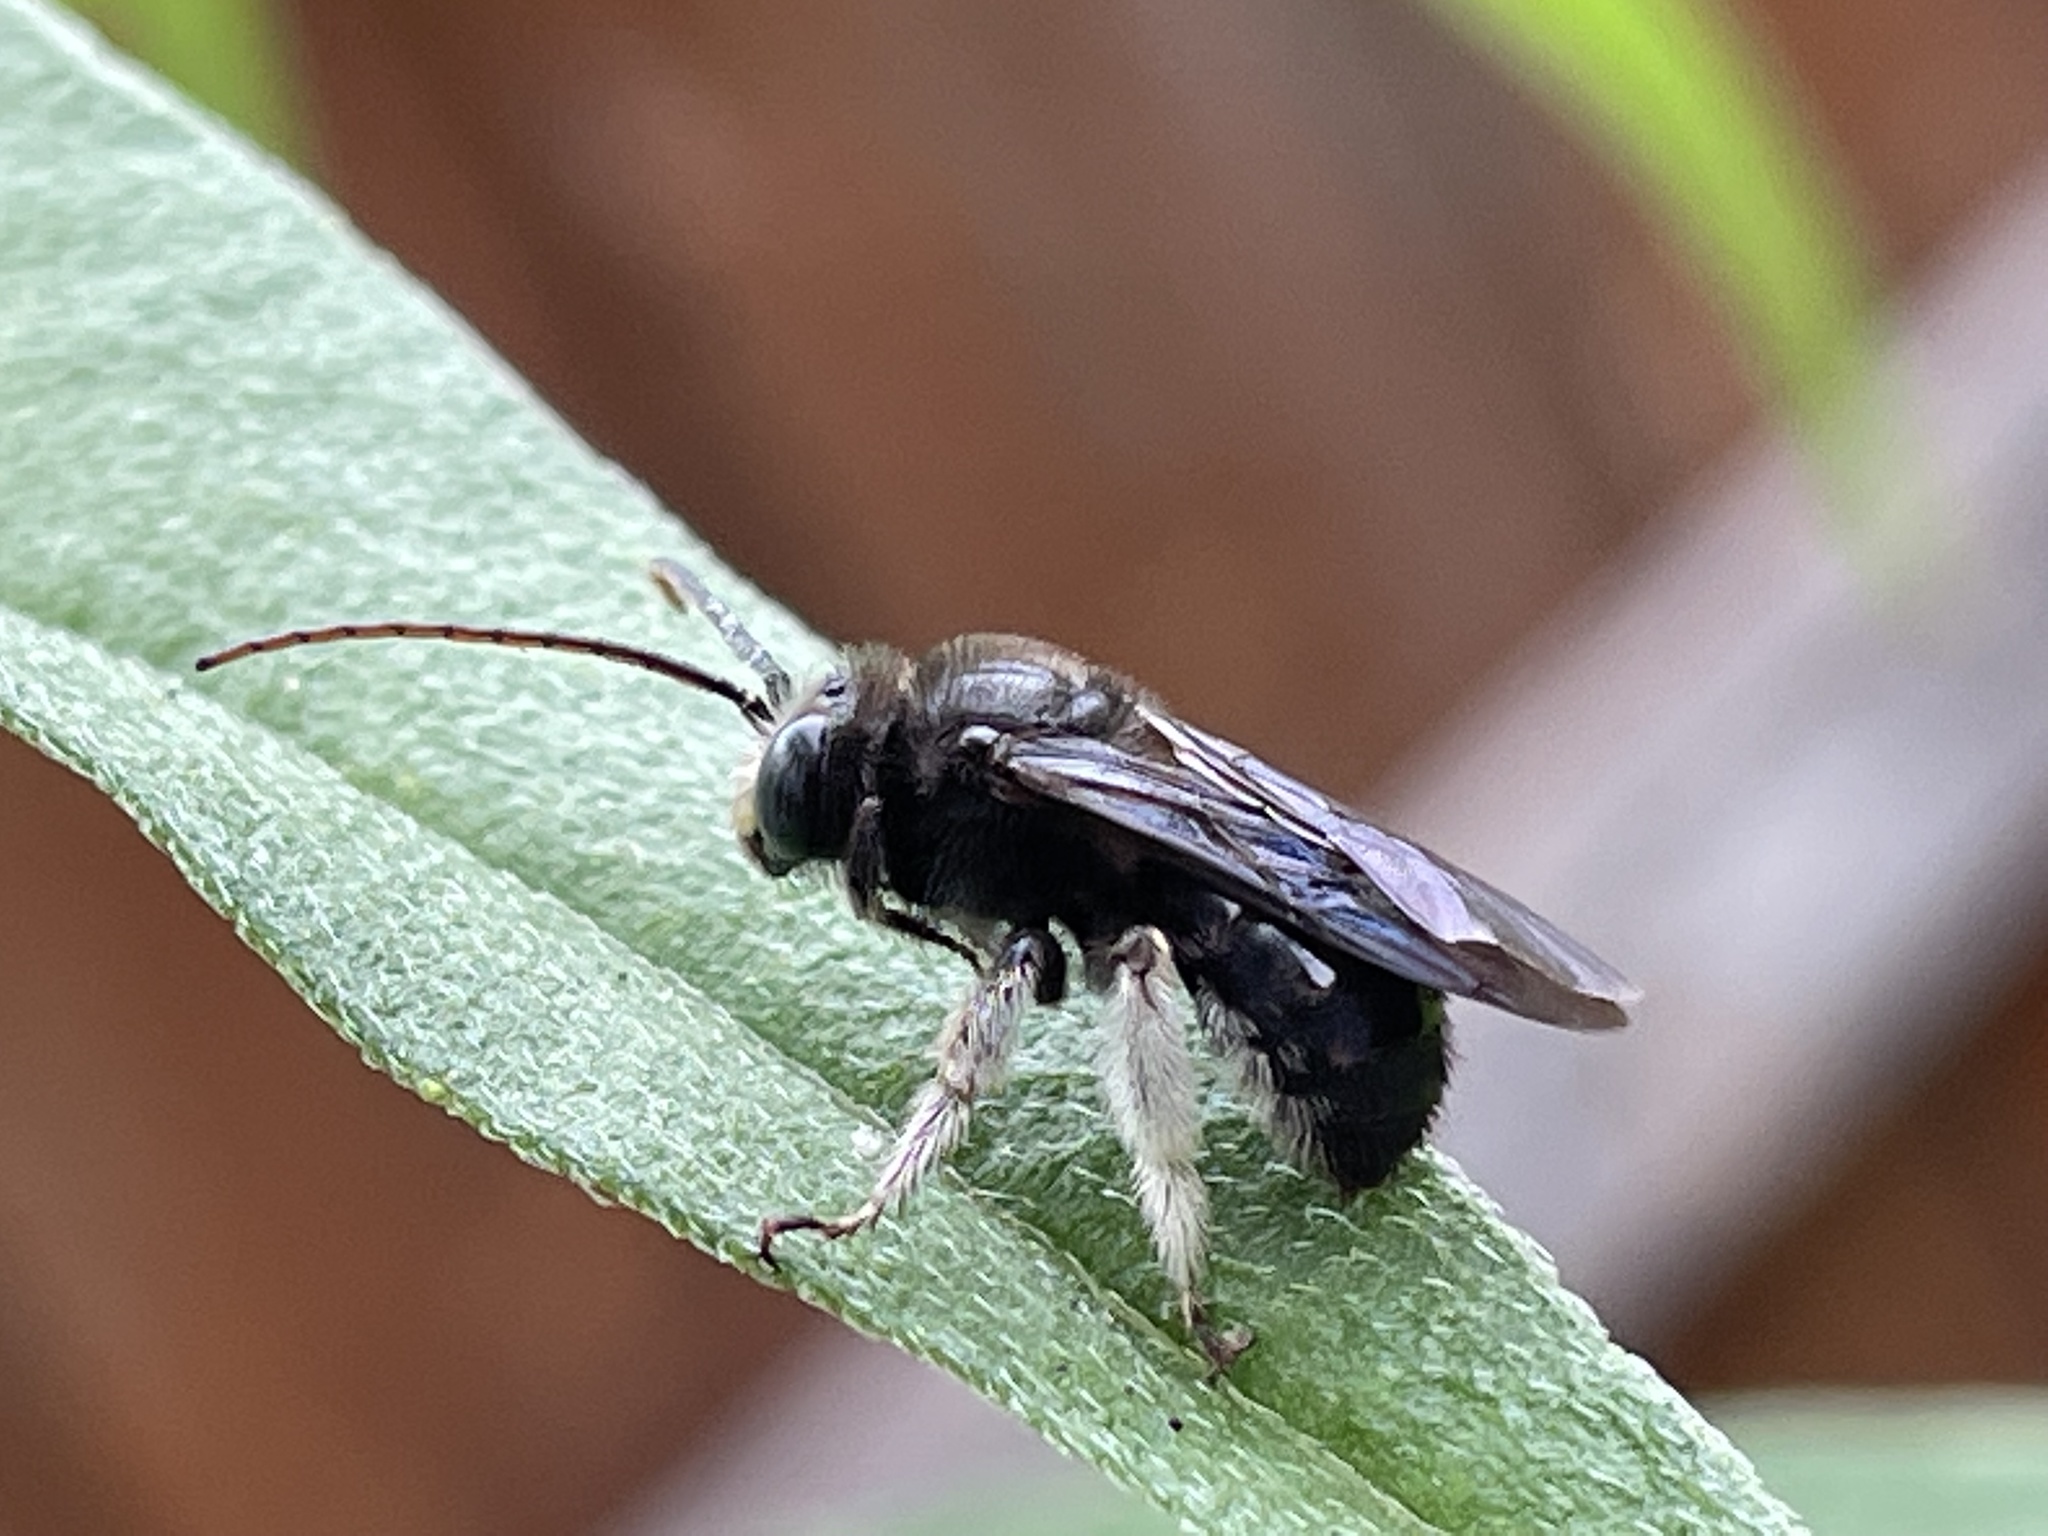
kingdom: Animalia
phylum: Arthropoda
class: Insecta
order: Hymenoptera
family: Apidae
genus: Melissodes
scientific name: Melissodes bimaculatus
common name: Two-spotted long-horned bee
